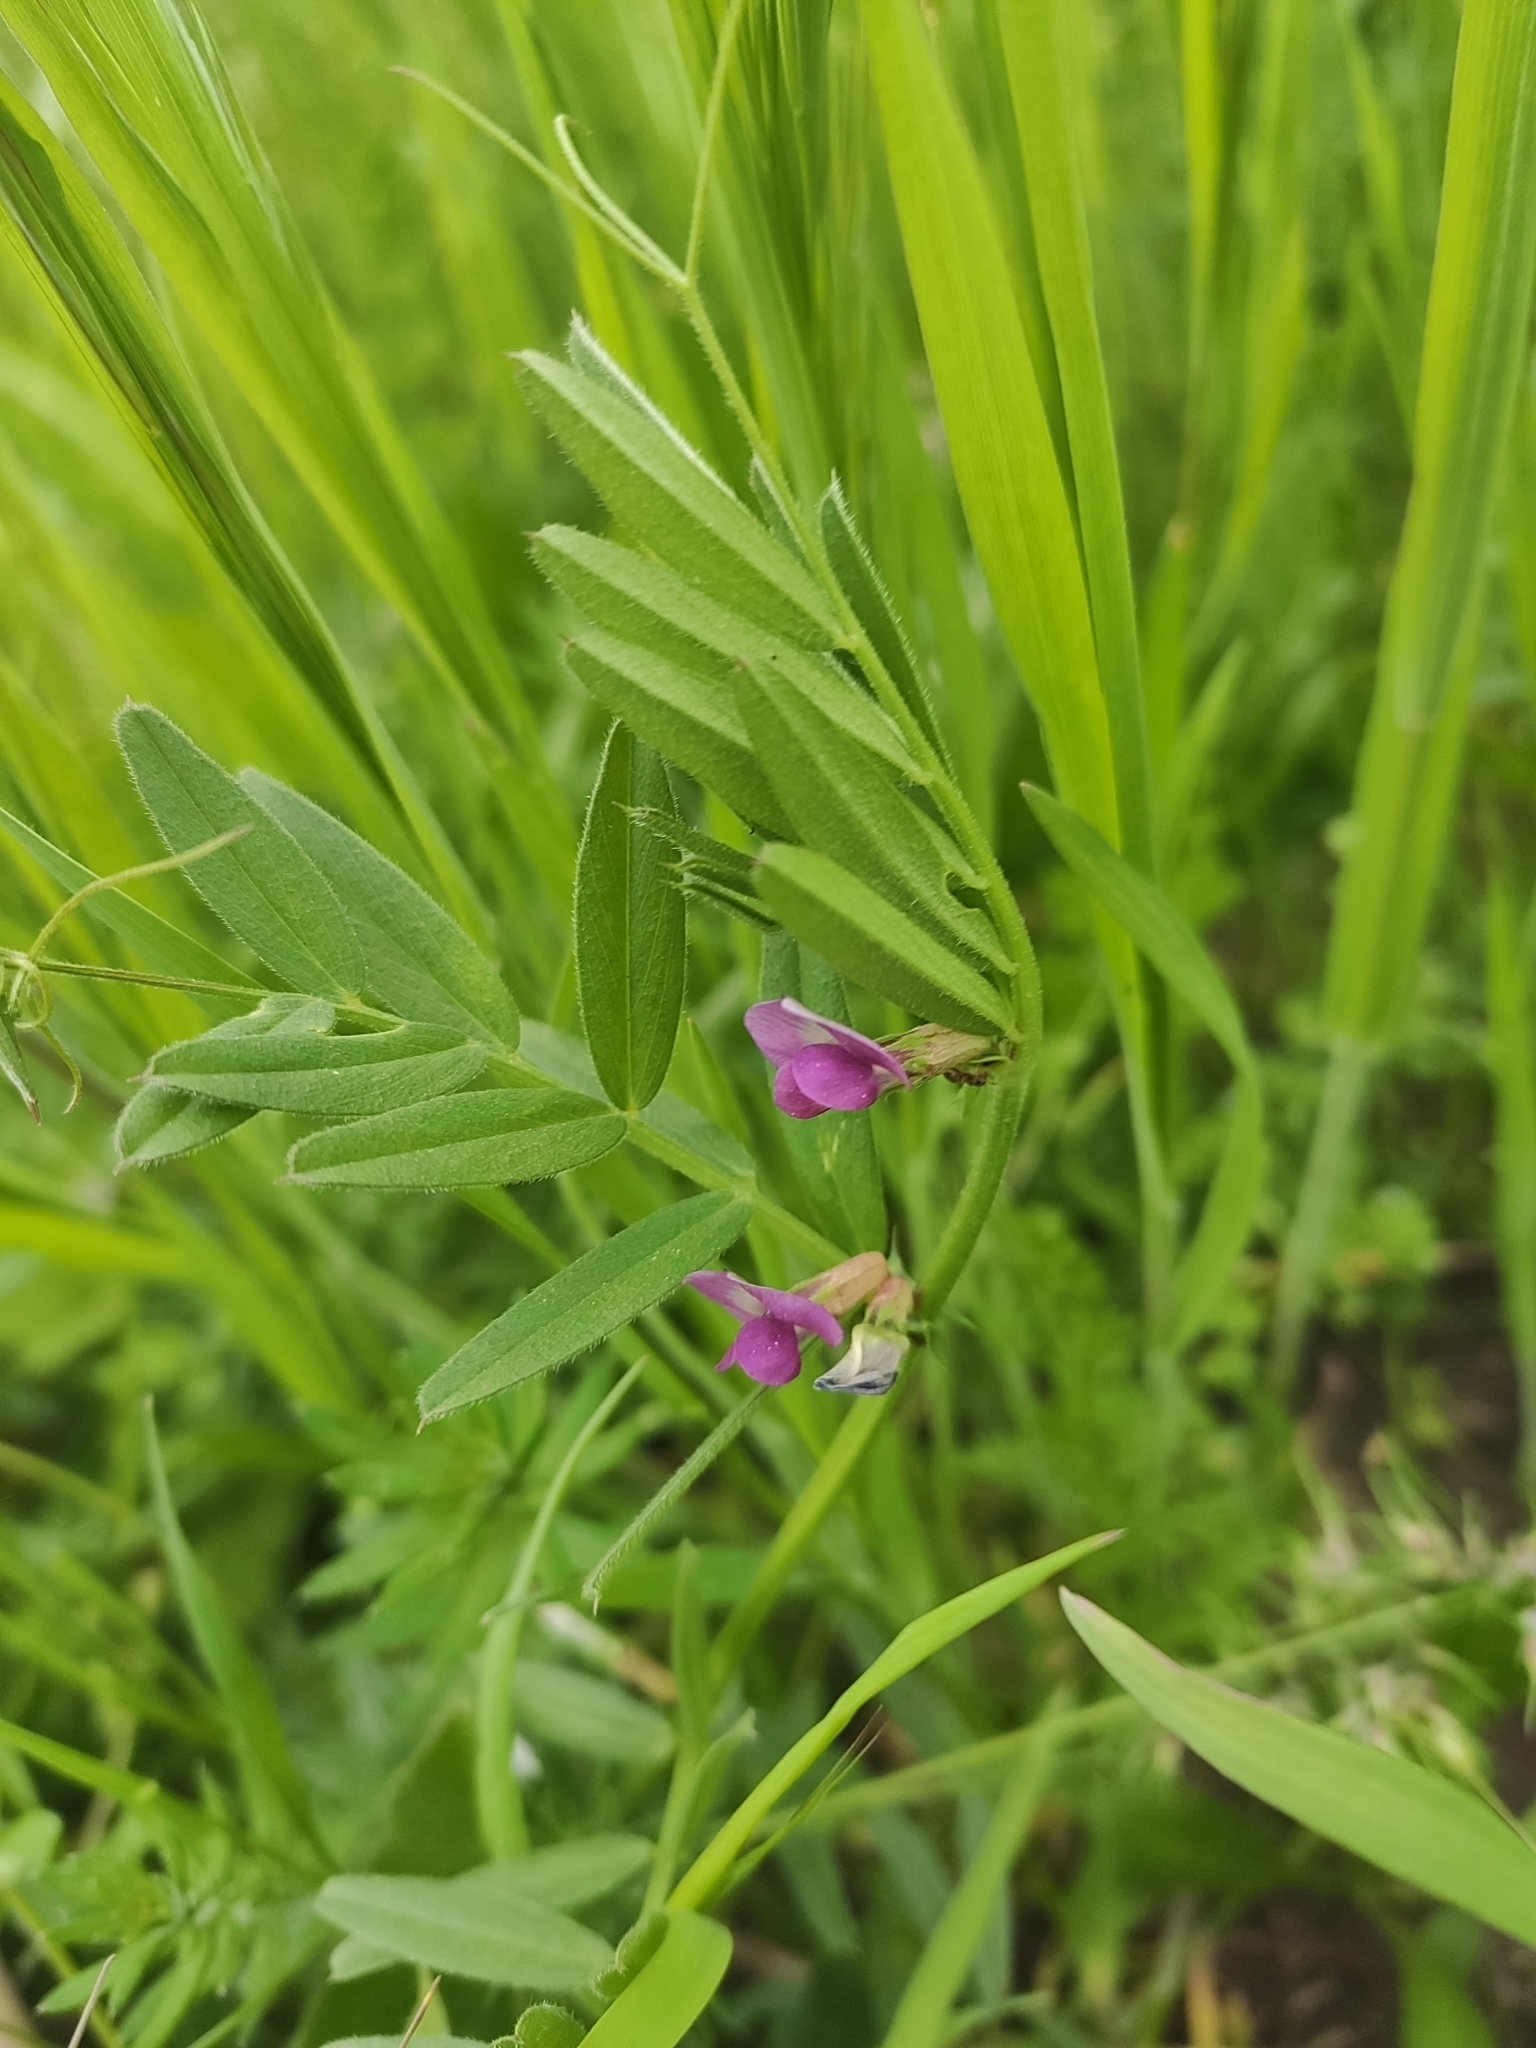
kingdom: Plantae
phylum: Tracheophyta
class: Magnoliopsida
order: Fabales
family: Fabaceae
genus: Vicia
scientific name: Vicia sativa
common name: Garden vetch
